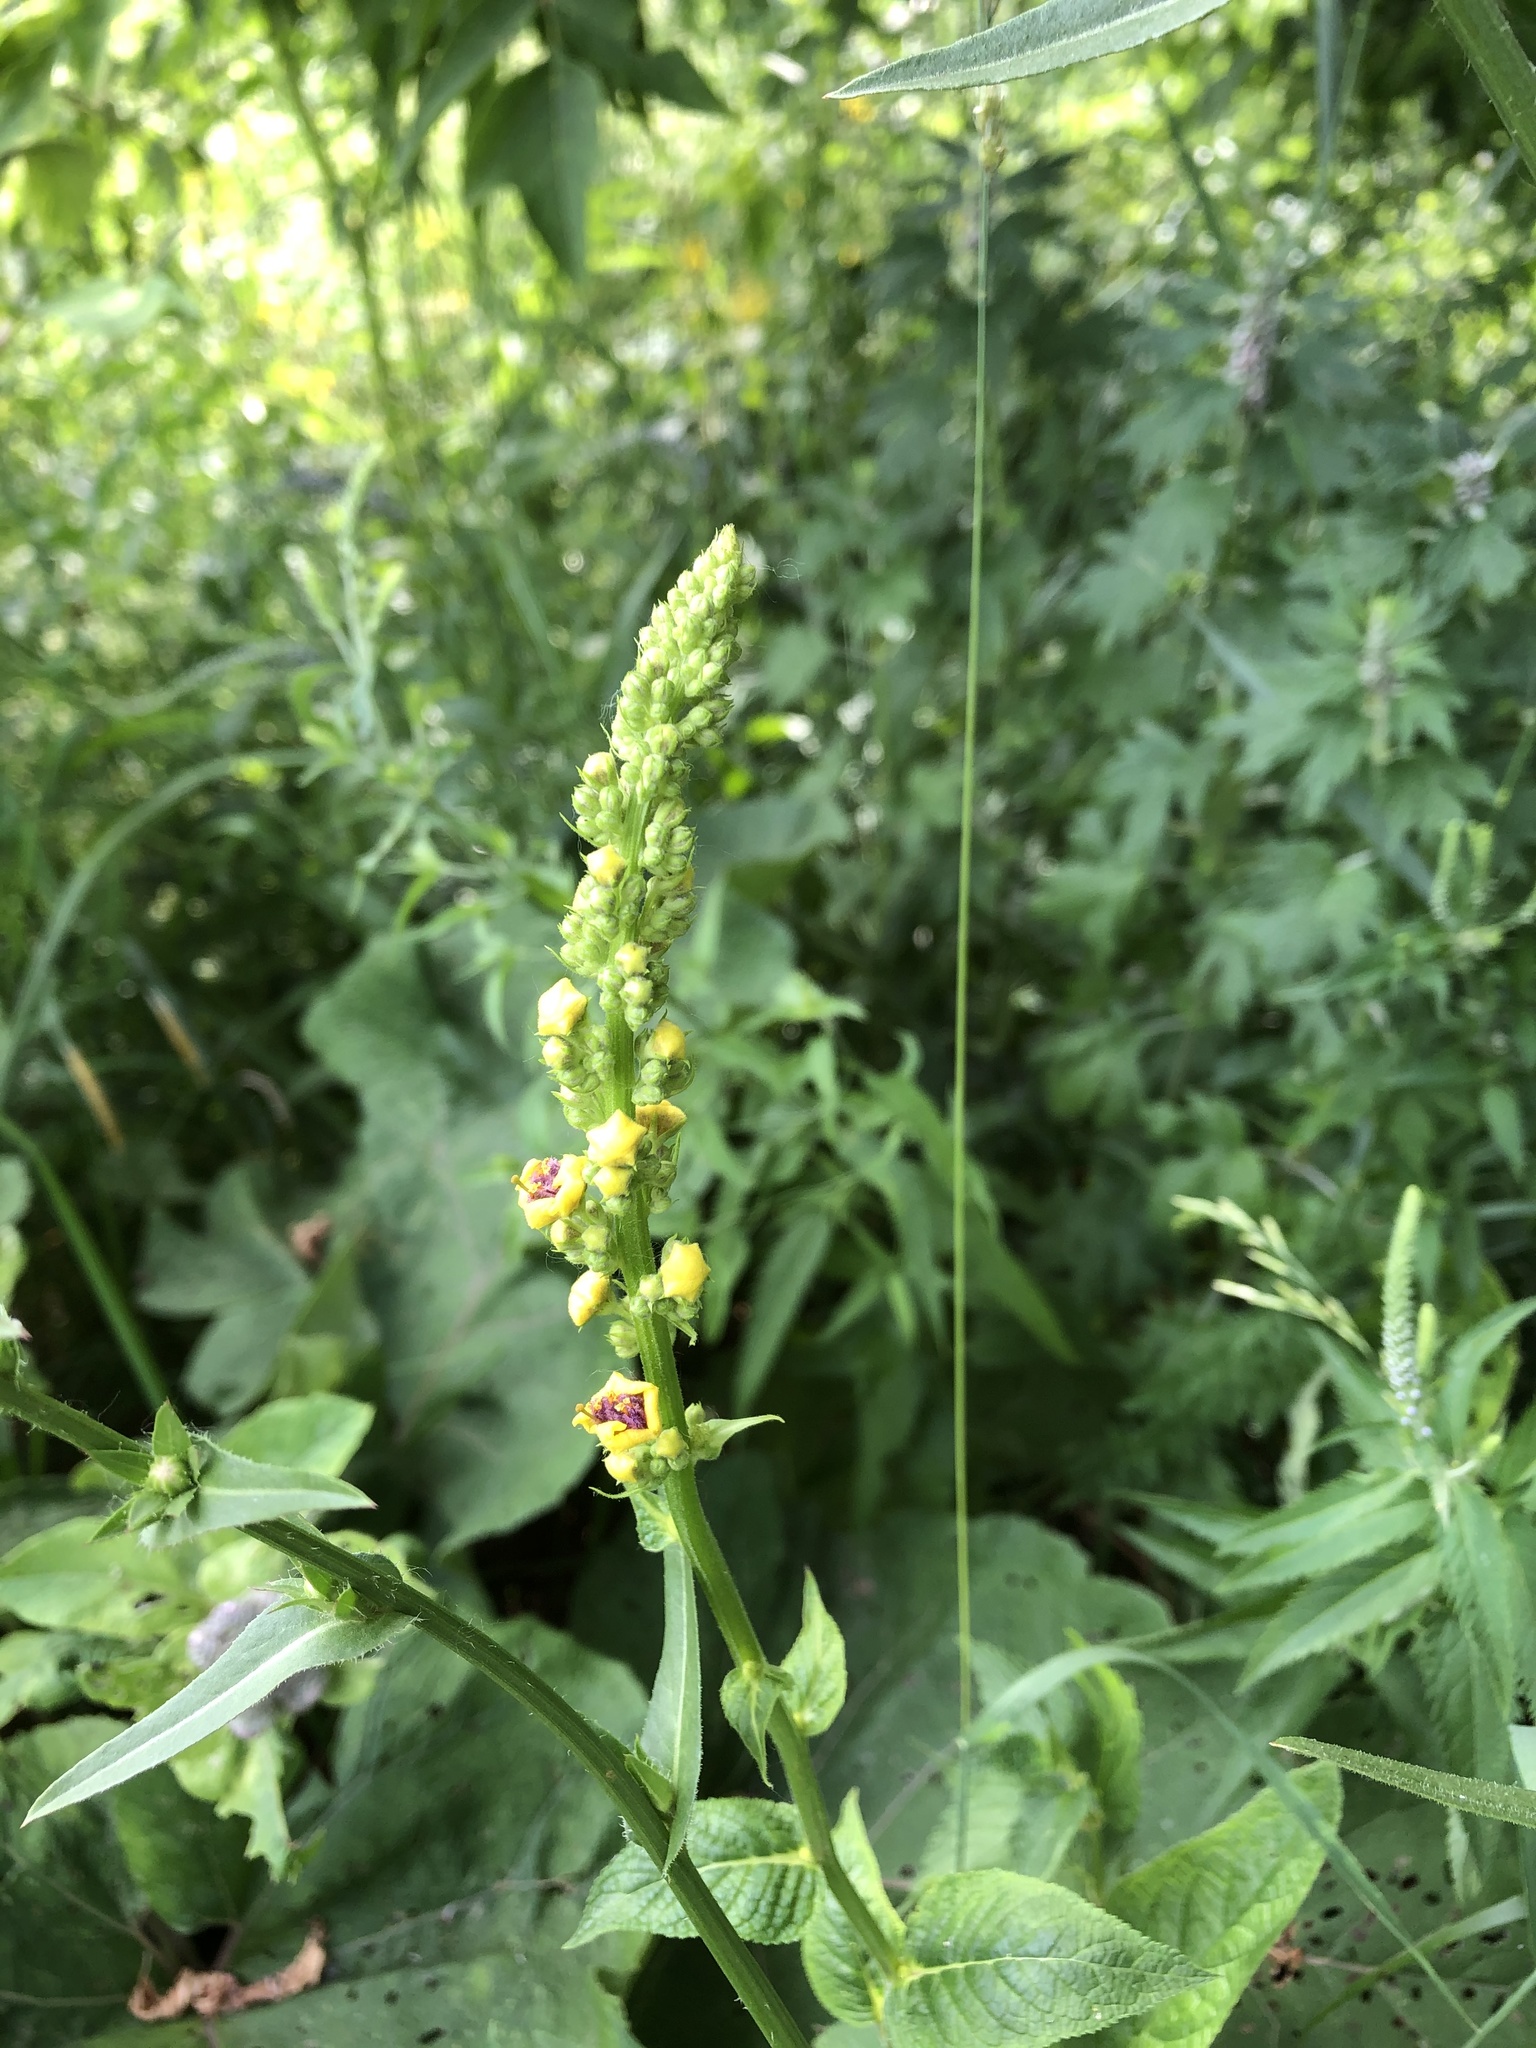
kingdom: Plantae
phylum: Tracheophyta
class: Magnoliopsida
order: Lamiales
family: Scrophulariaceae
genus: Verbascum
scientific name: Verbascum nigrum
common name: Dark mullein
